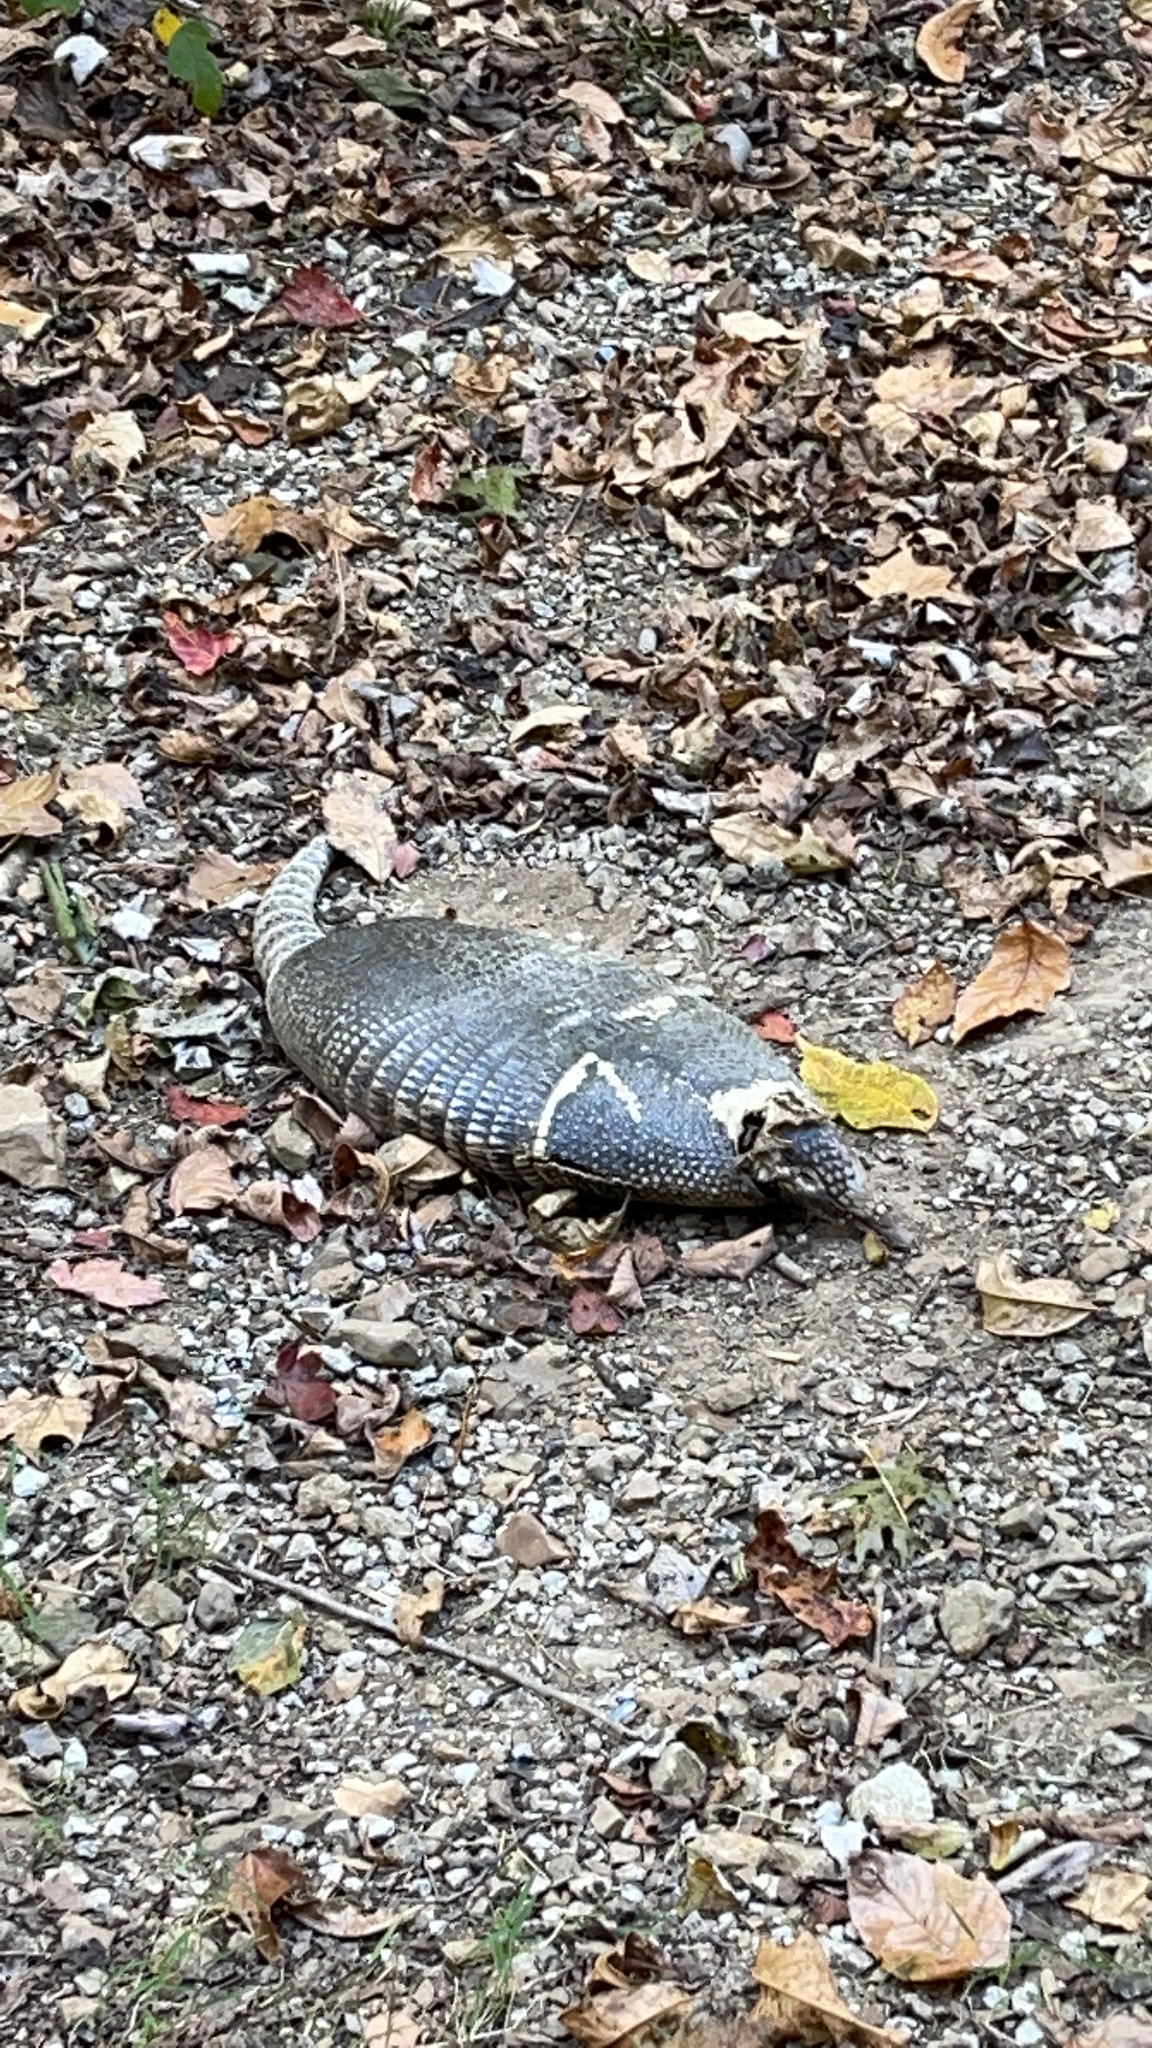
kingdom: Animalia
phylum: Chordata
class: Mammalia
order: Cingulata
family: Dasypodidae
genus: Dasypus
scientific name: Dasypus novemcinctus
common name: Nine-banded armadillo
